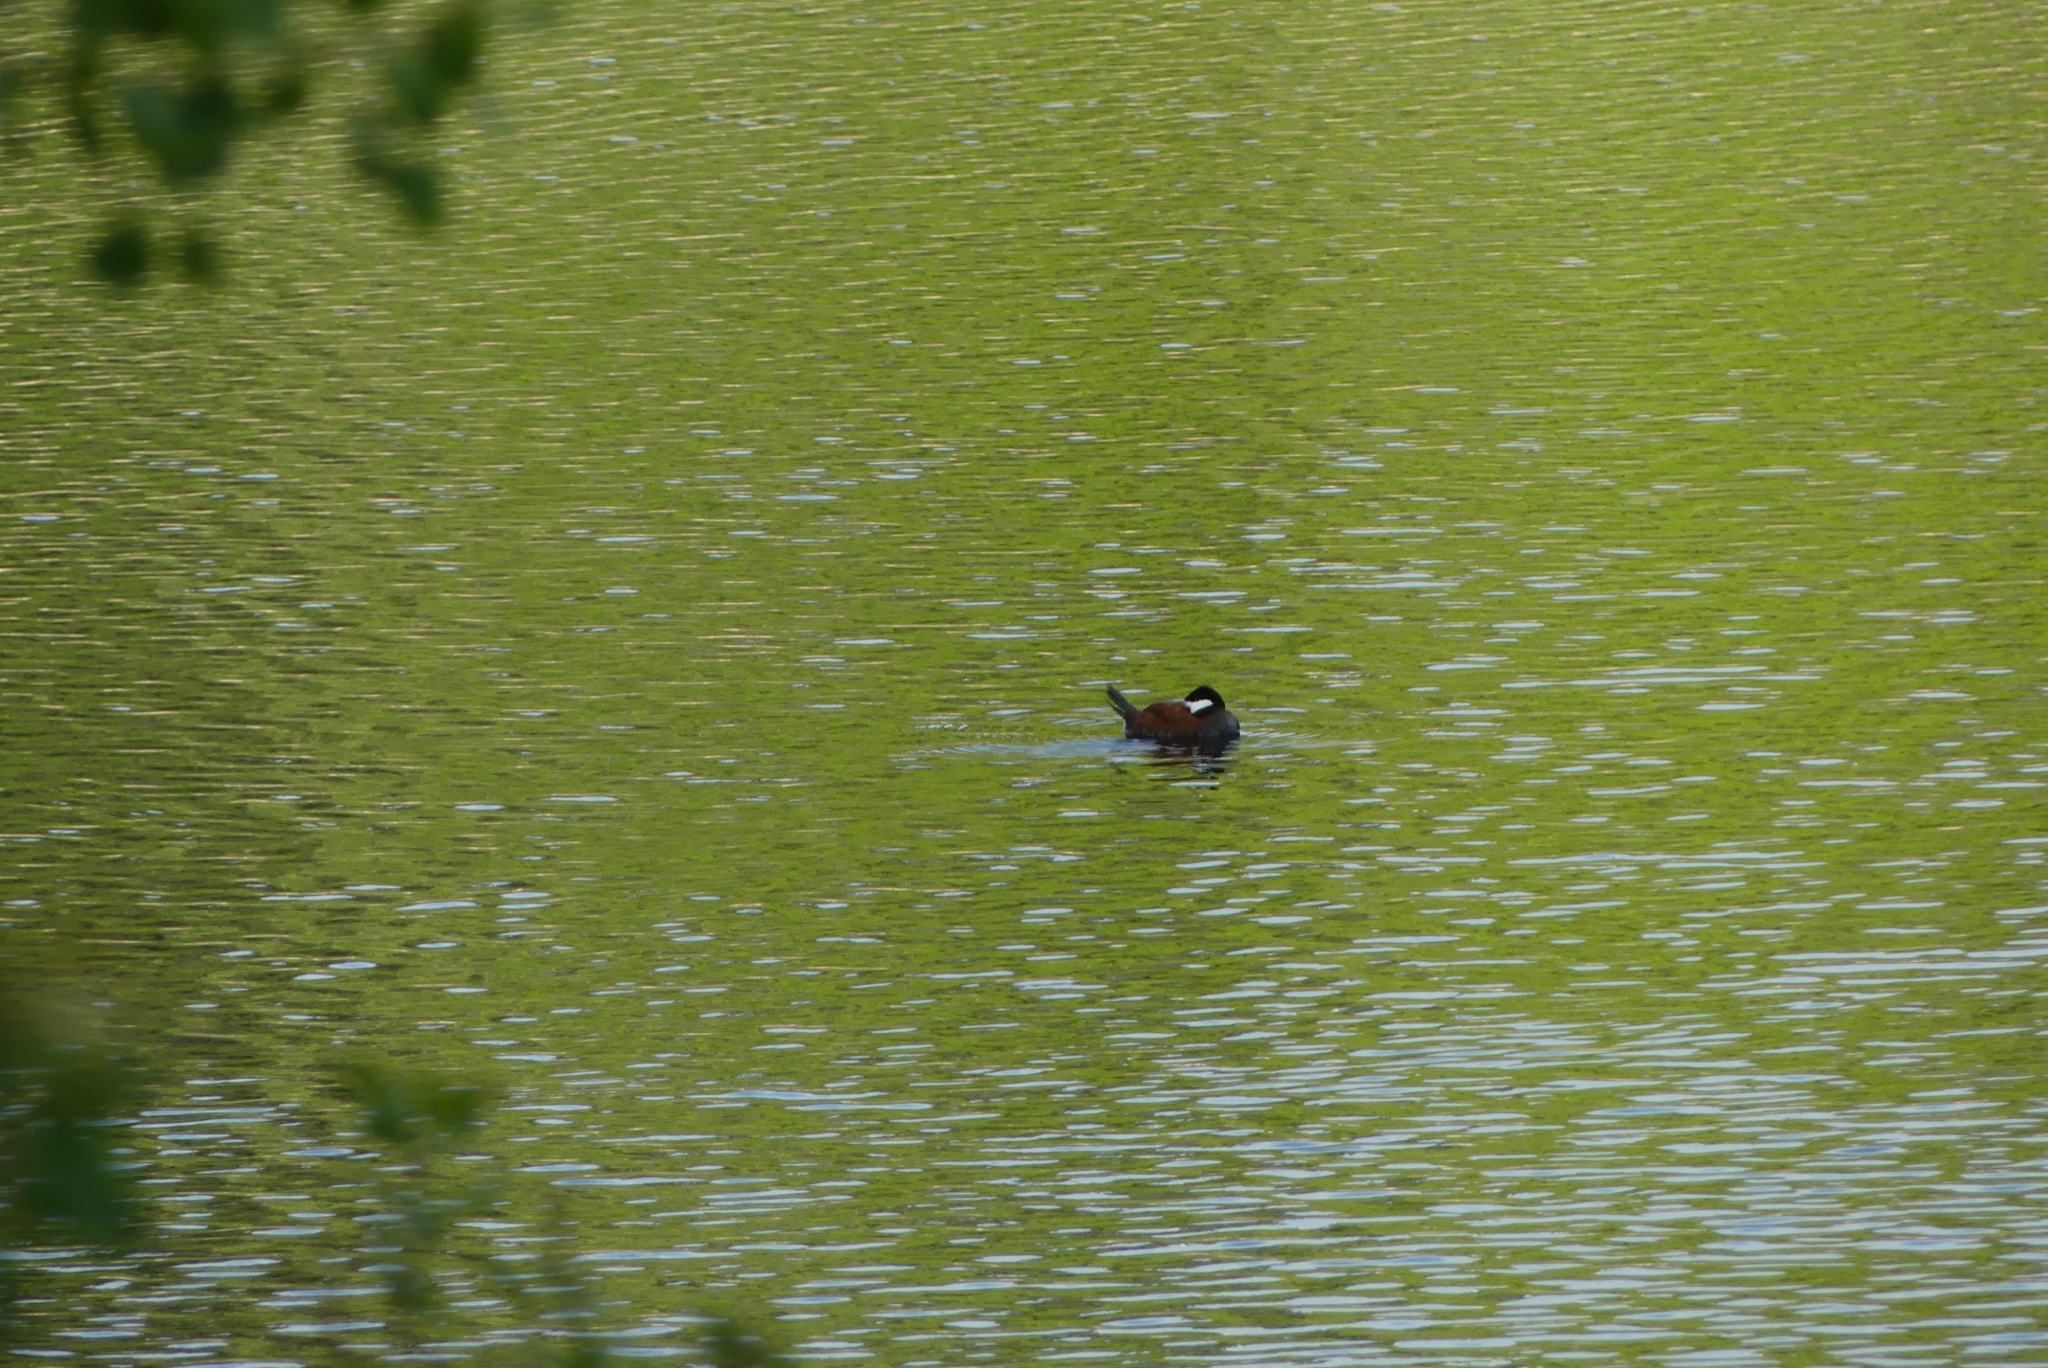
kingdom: Animalia
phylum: Chordata
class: Aves
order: Anseriformes
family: Anatidae
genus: Oxyura
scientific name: Oxyura jamaicensis
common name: Ruddy duck
